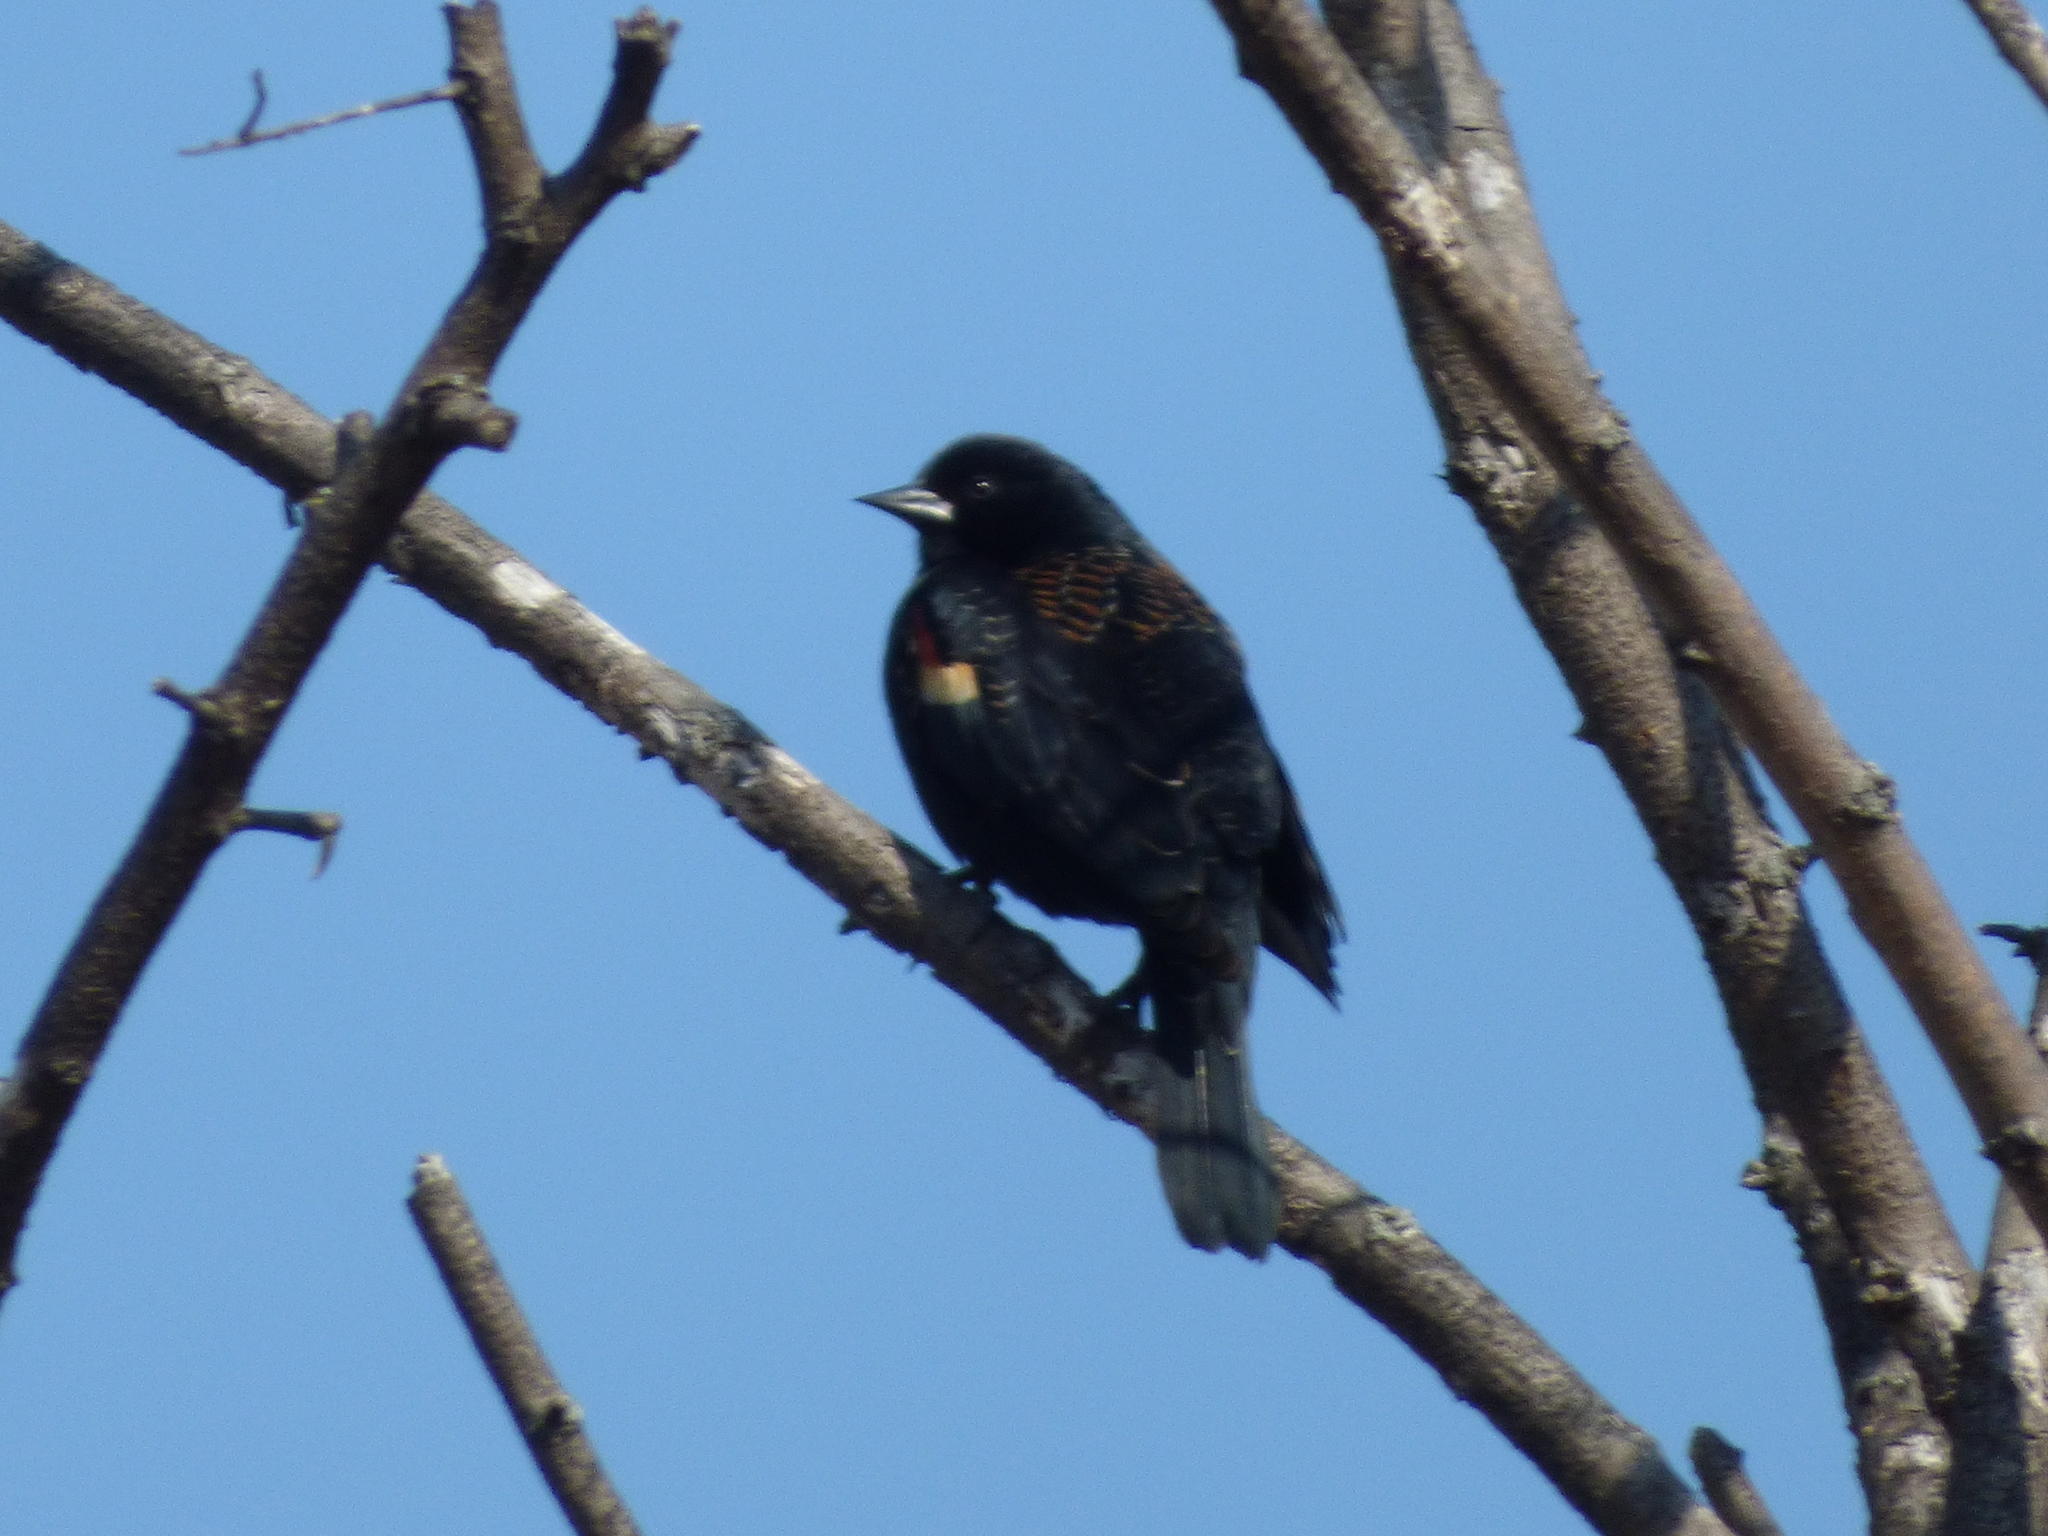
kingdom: Animalia
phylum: Chordata
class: Aves
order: Passeriformes
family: Icteridae
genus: Agelaius
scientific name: Agelaius phoeniceus
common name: Red-winged blackbird
